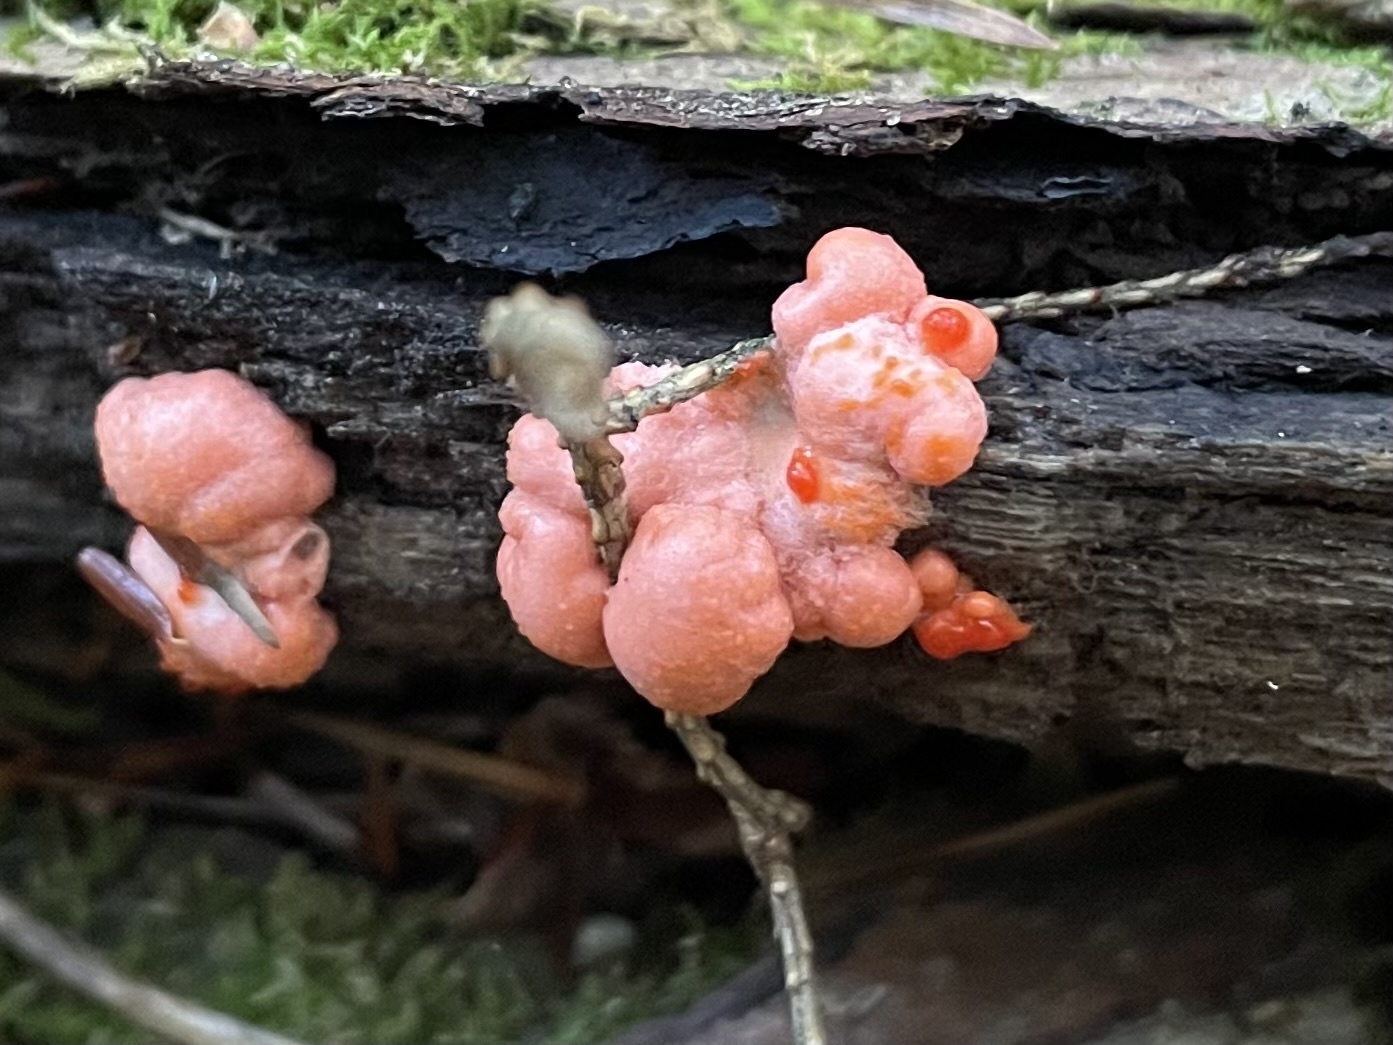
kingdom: Protozoa
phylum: Mycetozoa
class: Myxomycetes
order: Cribrariales
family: Tubiferaceae
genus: Lycogala
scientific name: Lycogala epidendrum
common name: Wolf's milk
